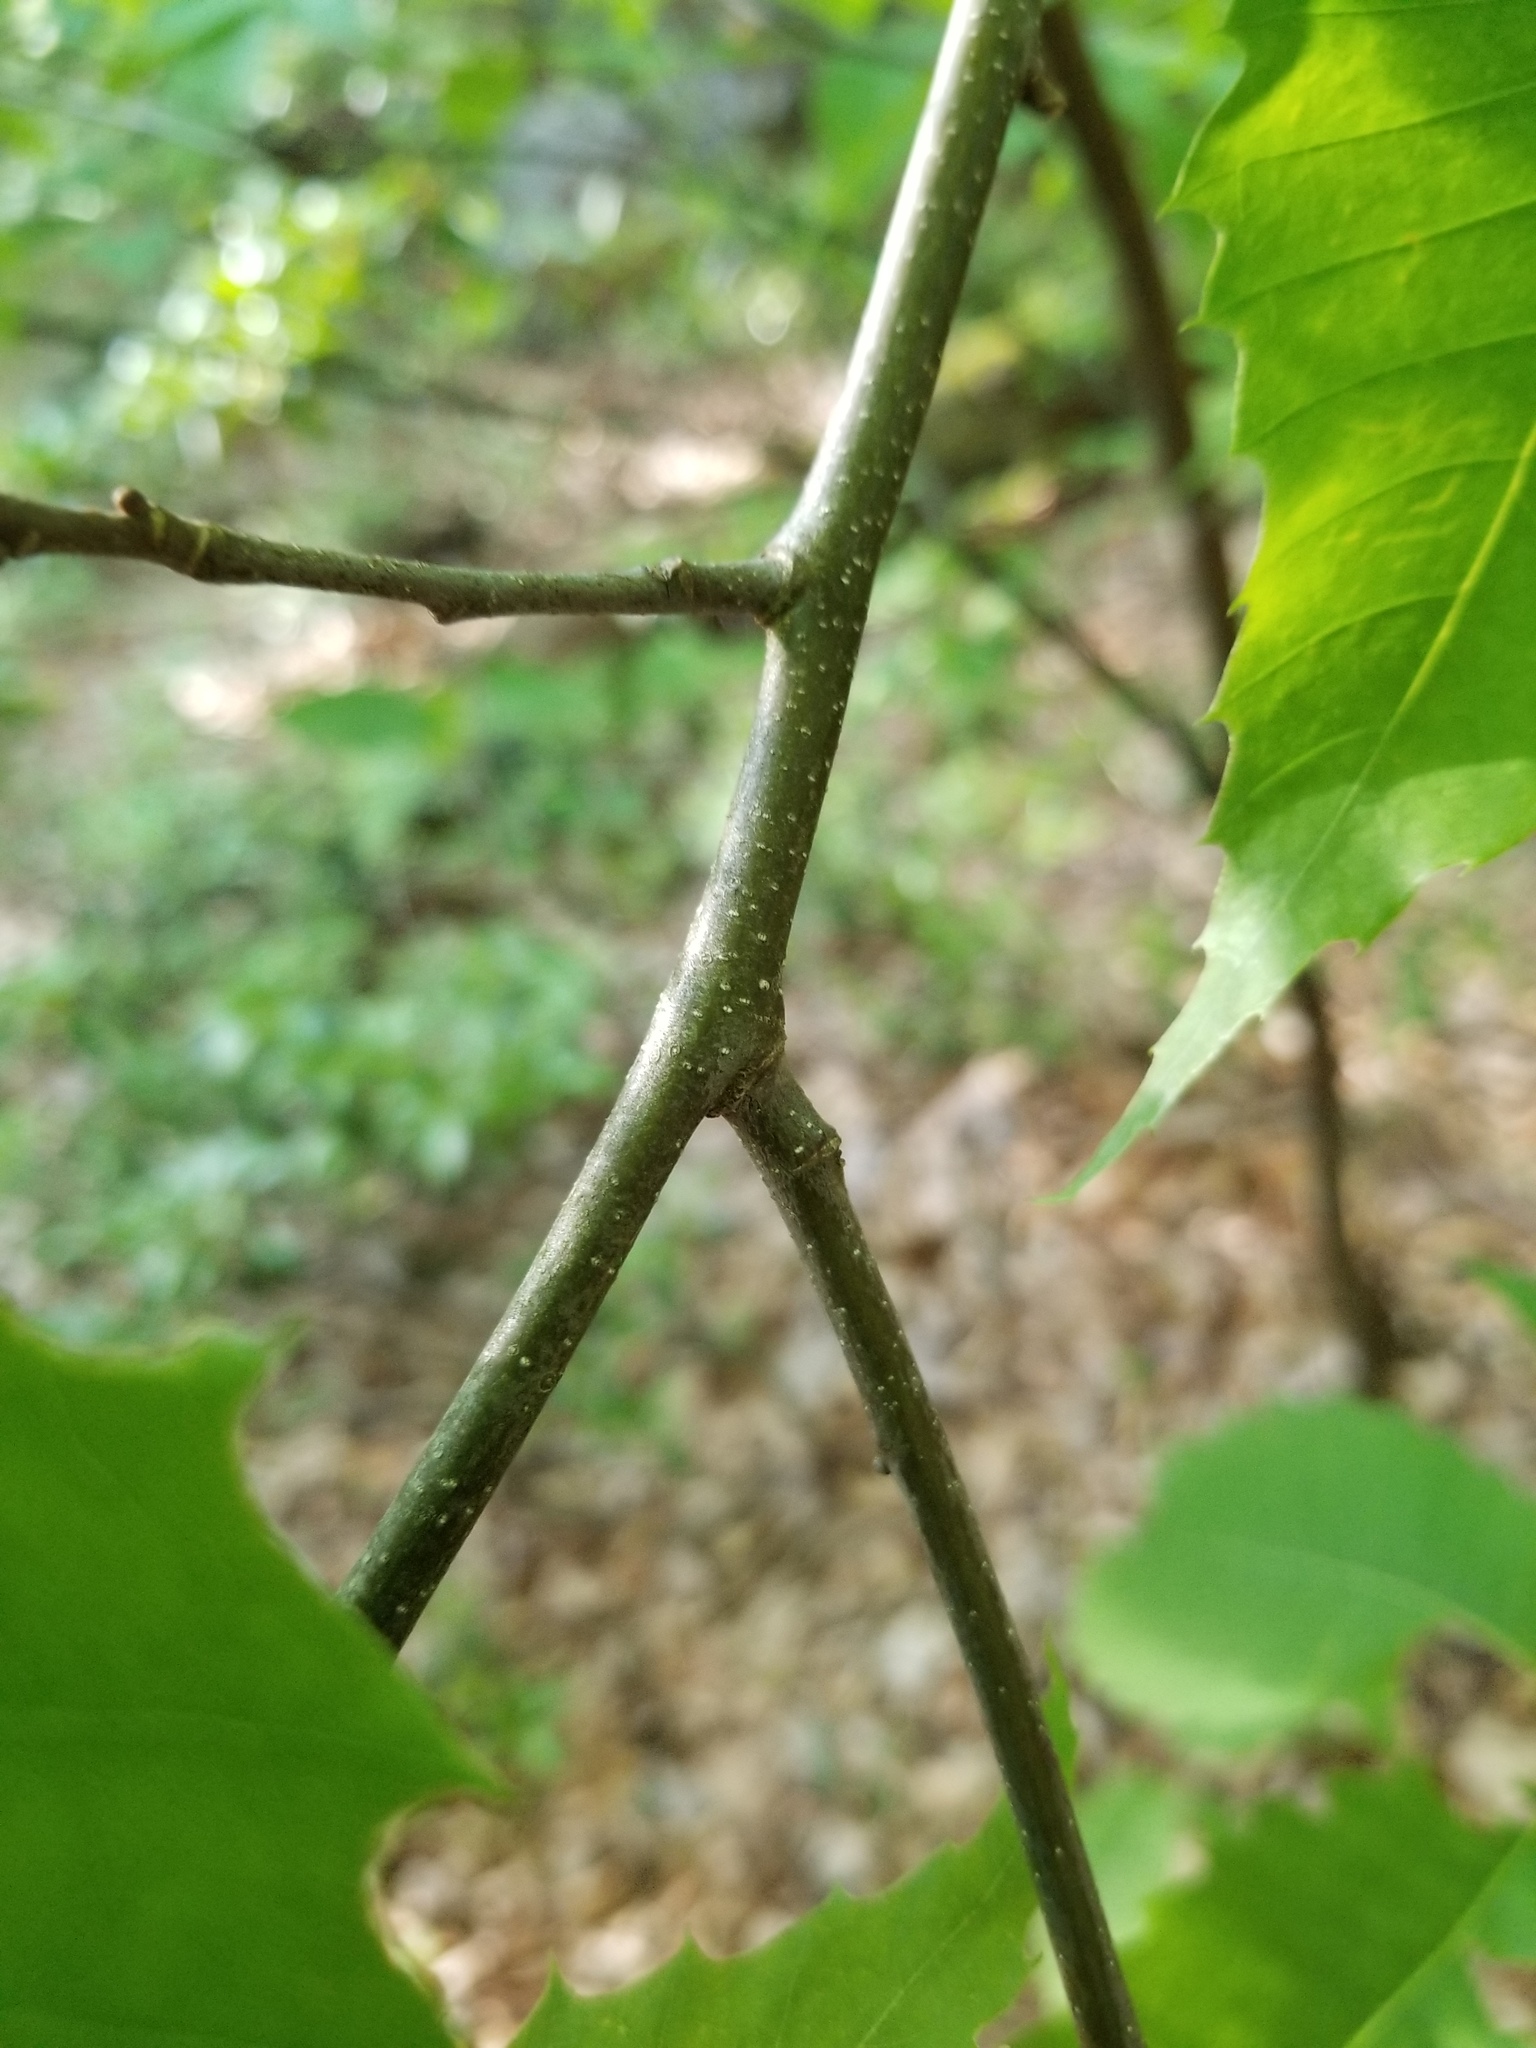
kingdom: Plantae
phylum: Tracheophyta
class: Magnoliopsida
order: Fagales
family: Fagaceae
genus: Castanea
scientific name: Castanea dentata
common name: American chestnut
